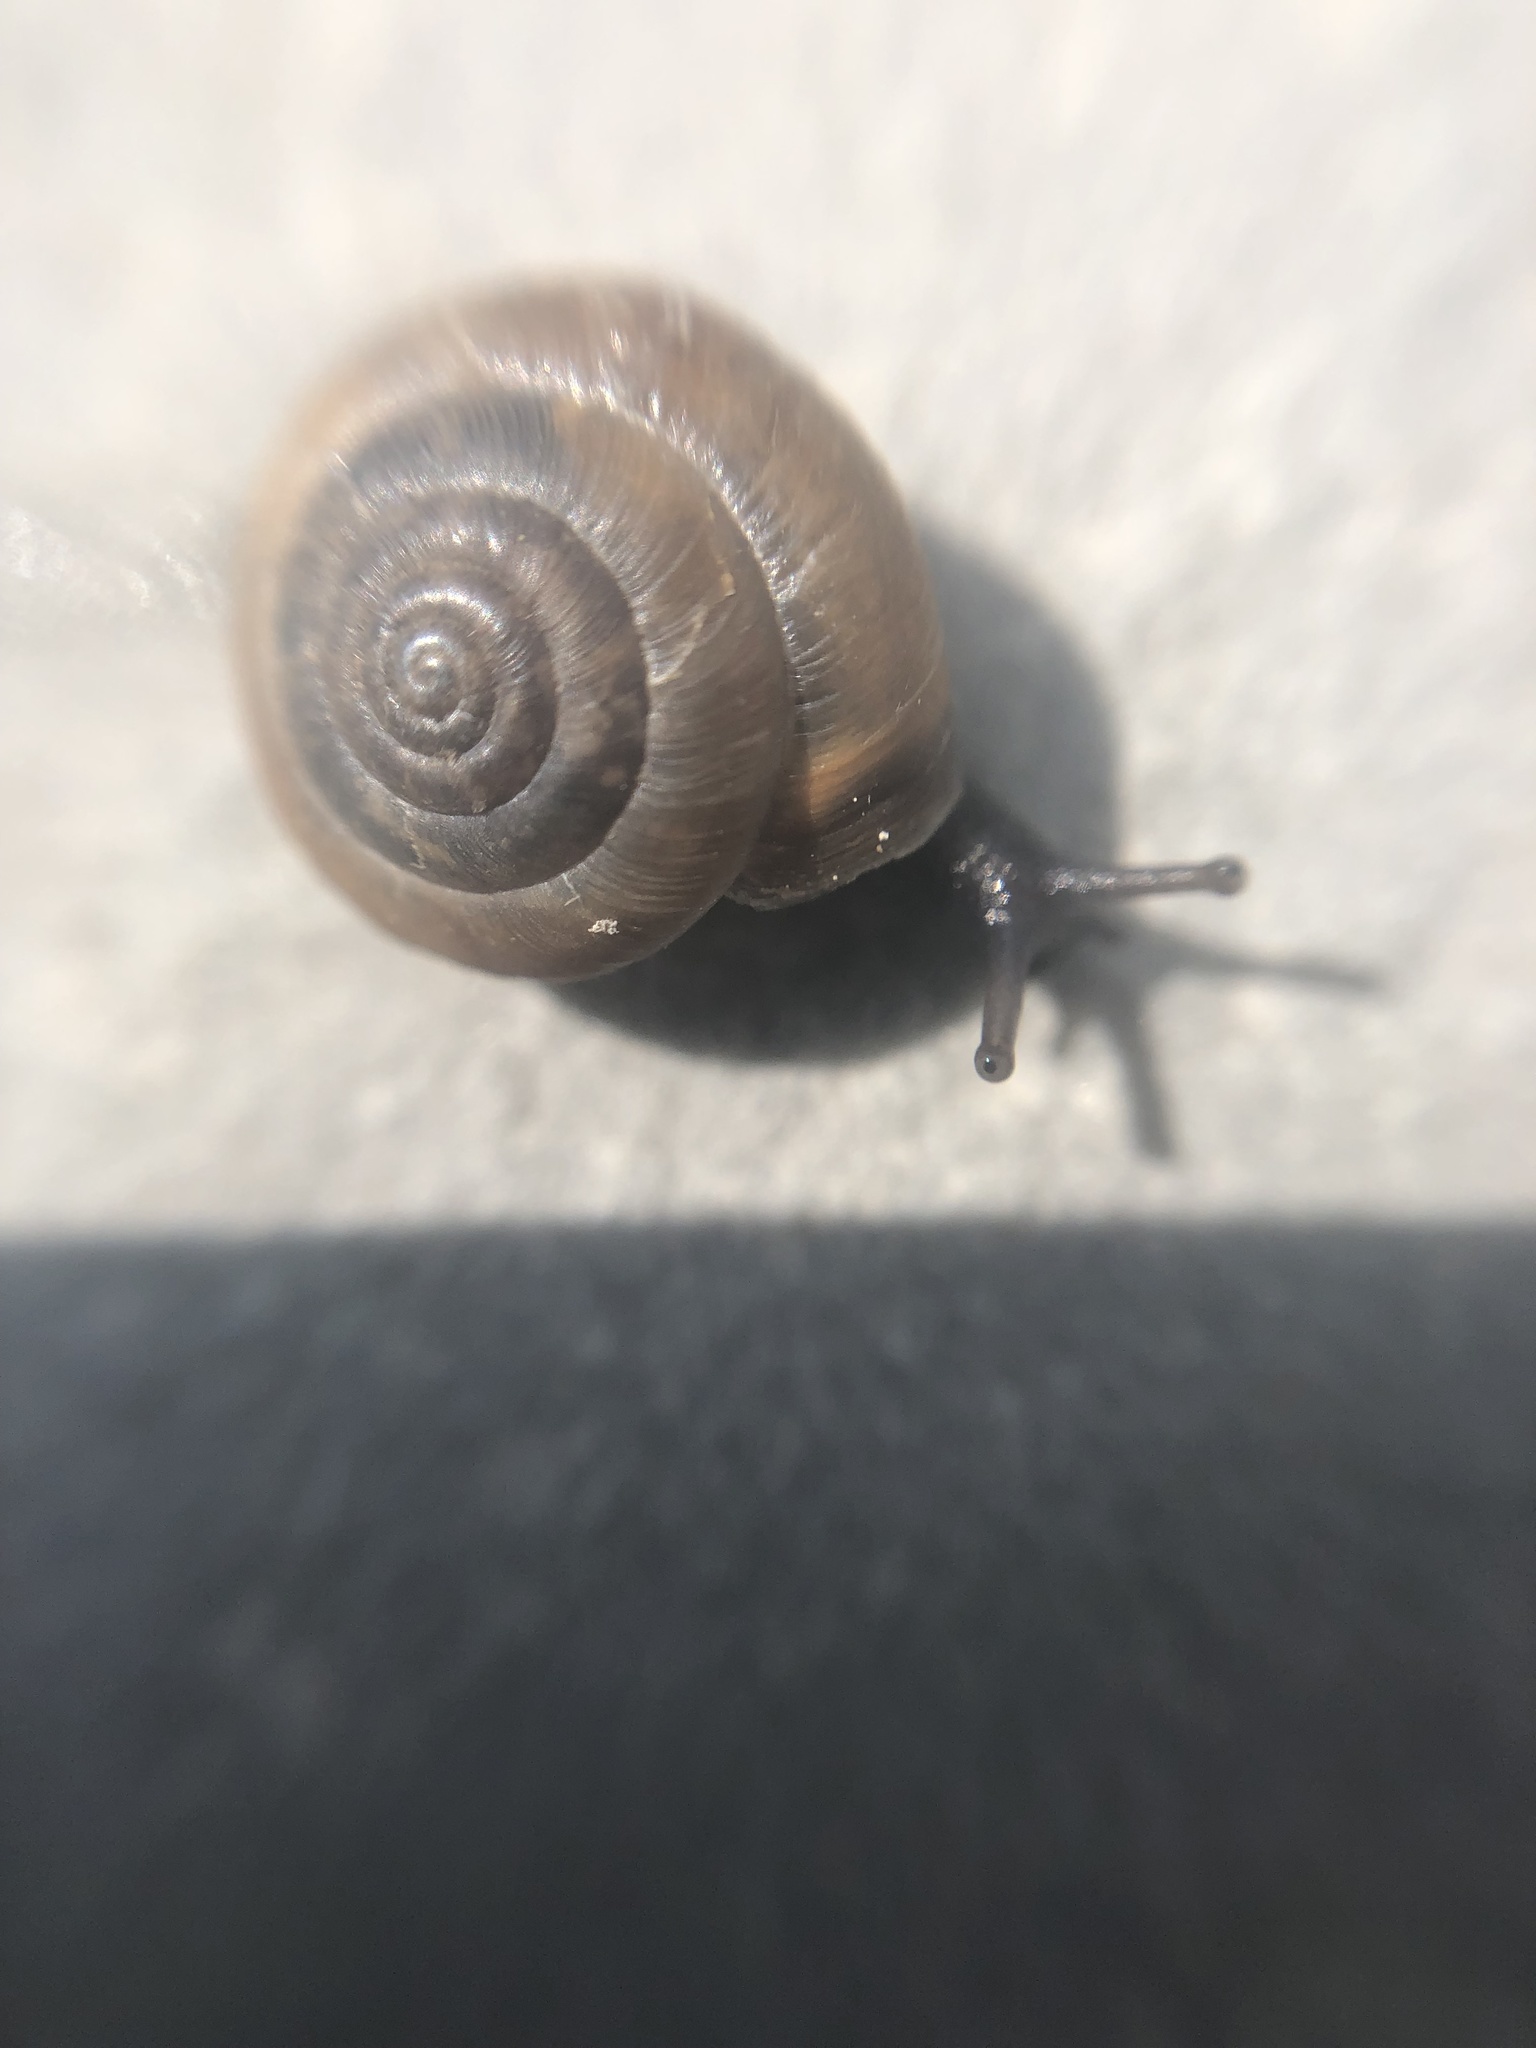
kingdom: Animalia
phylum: Mollusca
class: Gastropoda
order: Stylommatophora
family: Hygromiidae
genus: Trochulus
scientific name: Trochulus striolatus
